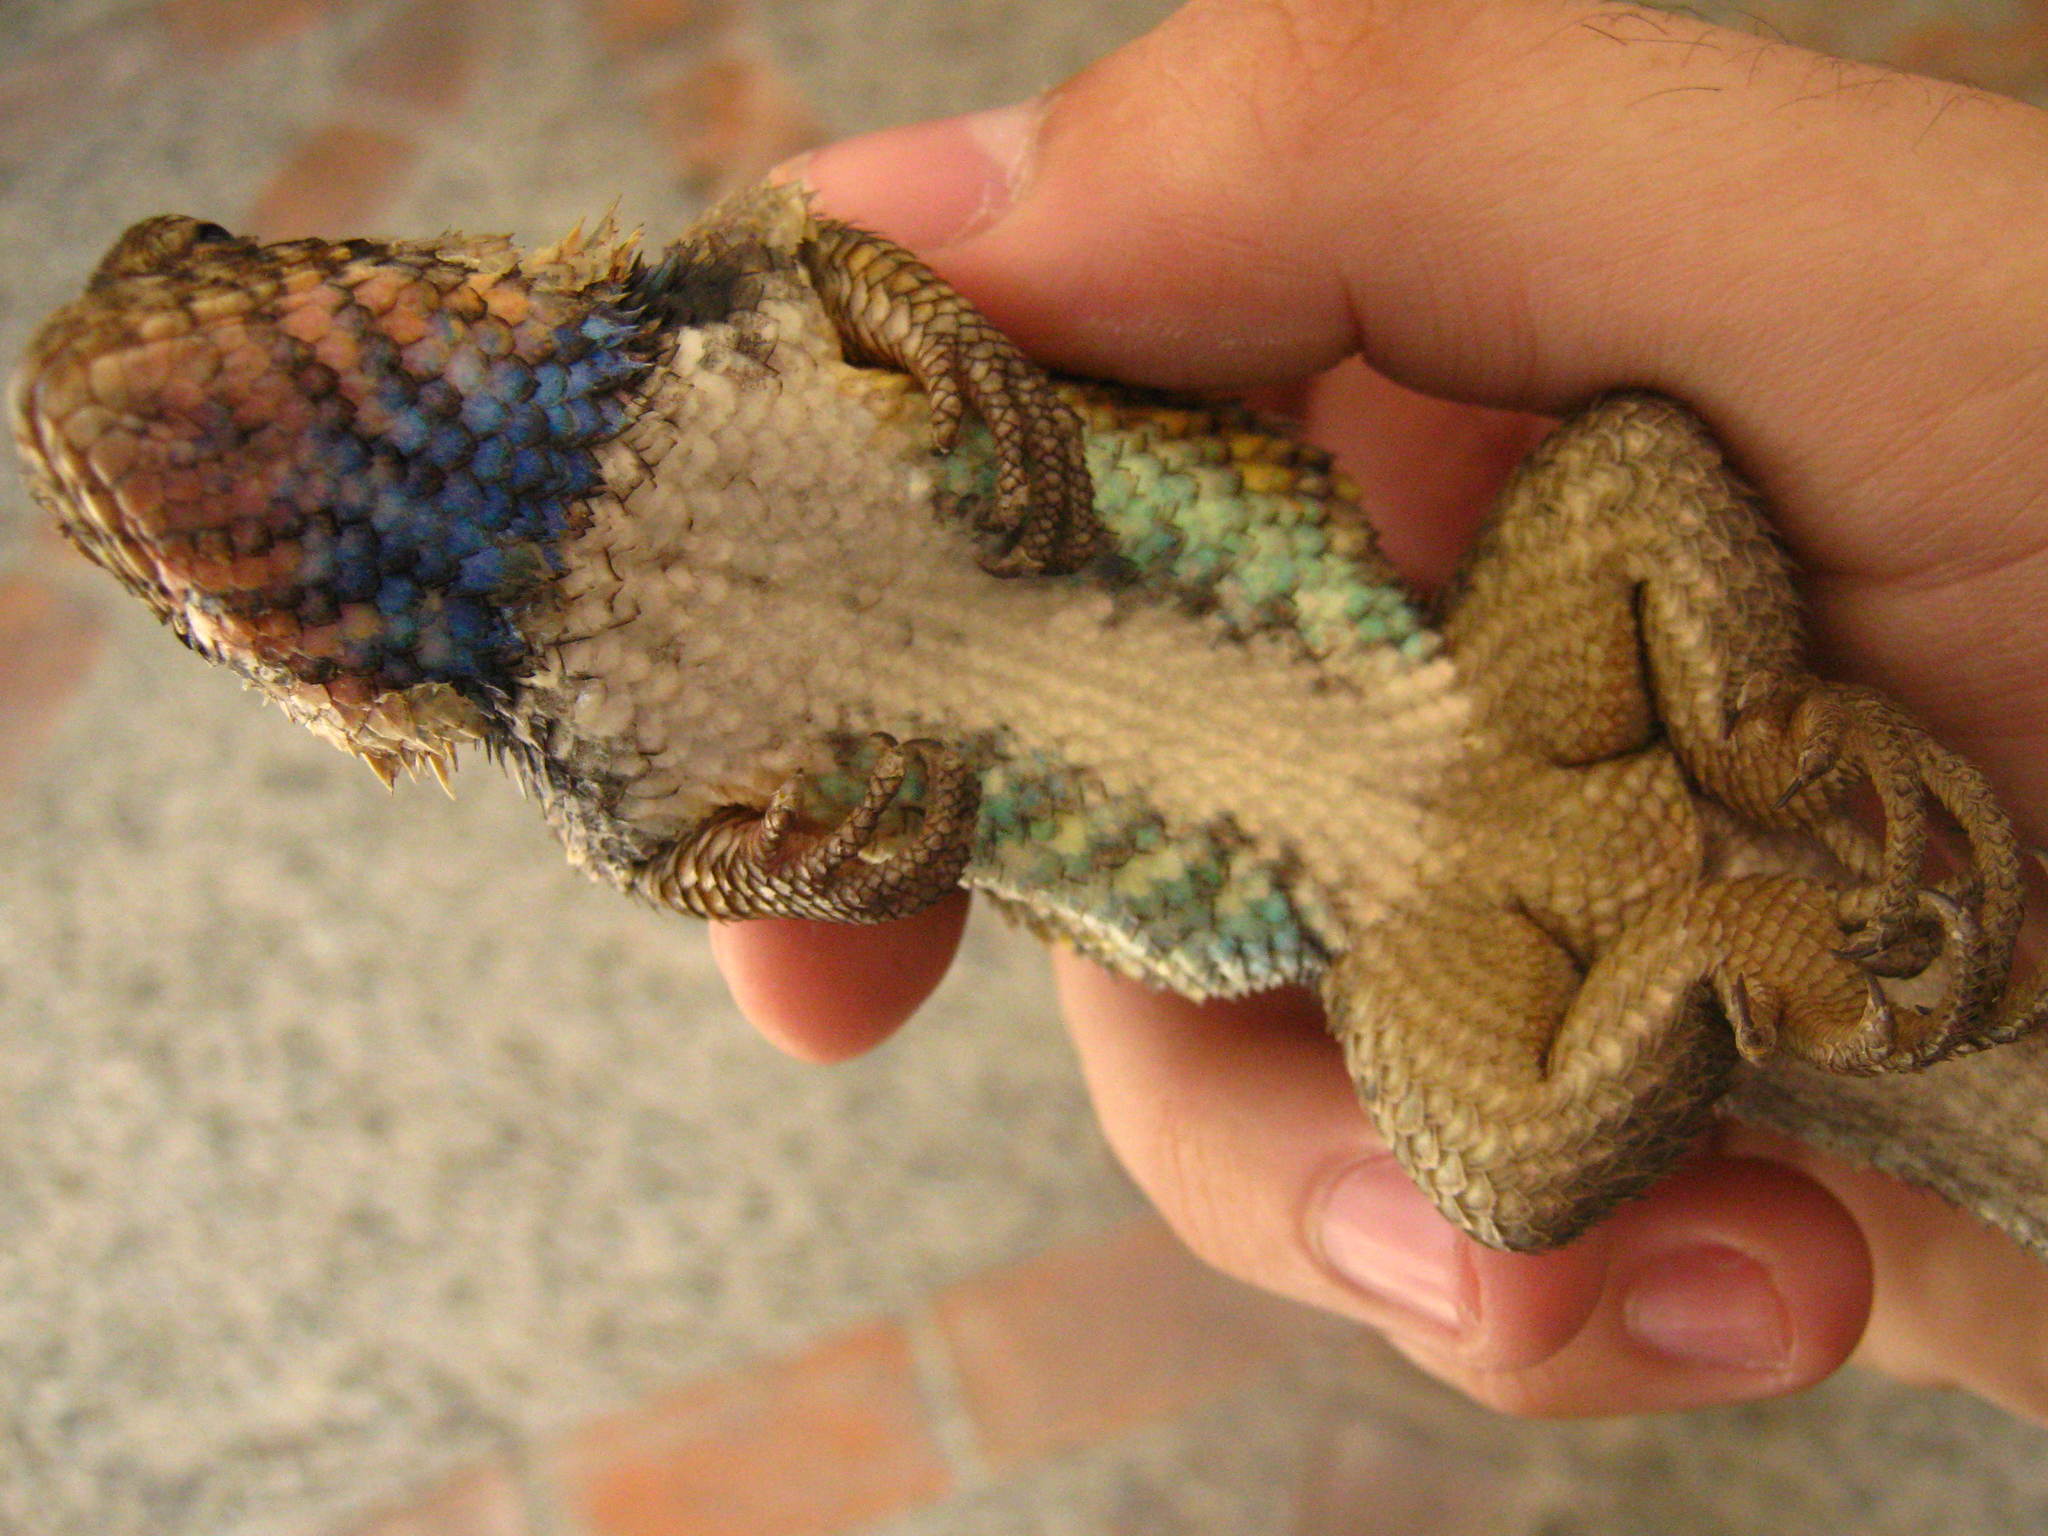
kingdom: Animalia
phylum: Chordata
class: Squamata
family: Phrynosomatidae
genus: Sceloporus
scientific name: Sceloporus spinosus
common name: Blue-spotted spiny lizard [caeruleopunctatus]
